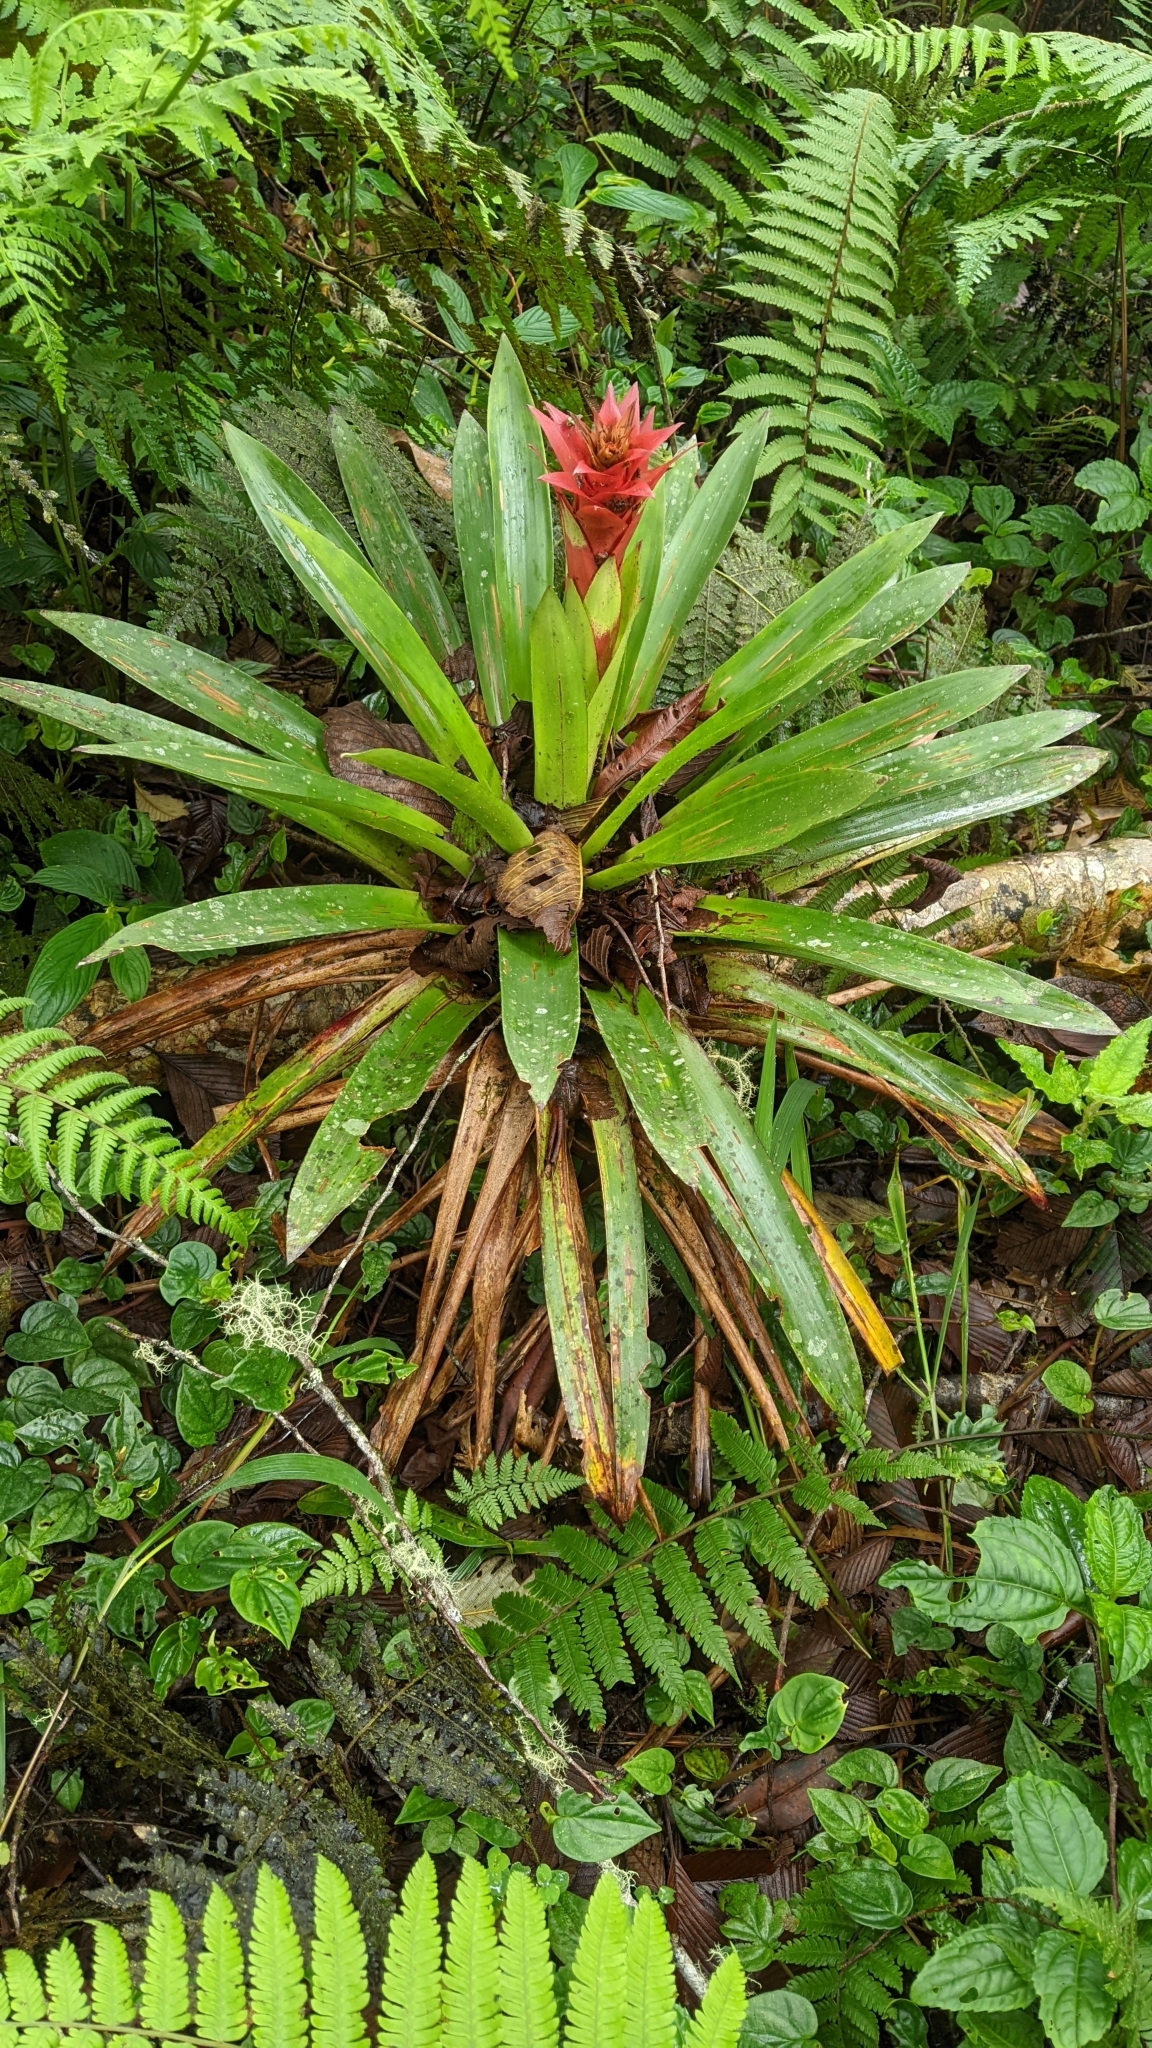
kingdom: Plantae
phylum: Tracheophyta
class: Liliopsida
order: Poales
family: Bromeliaceae
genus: Guzmania
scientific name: Guzmania lingulata
